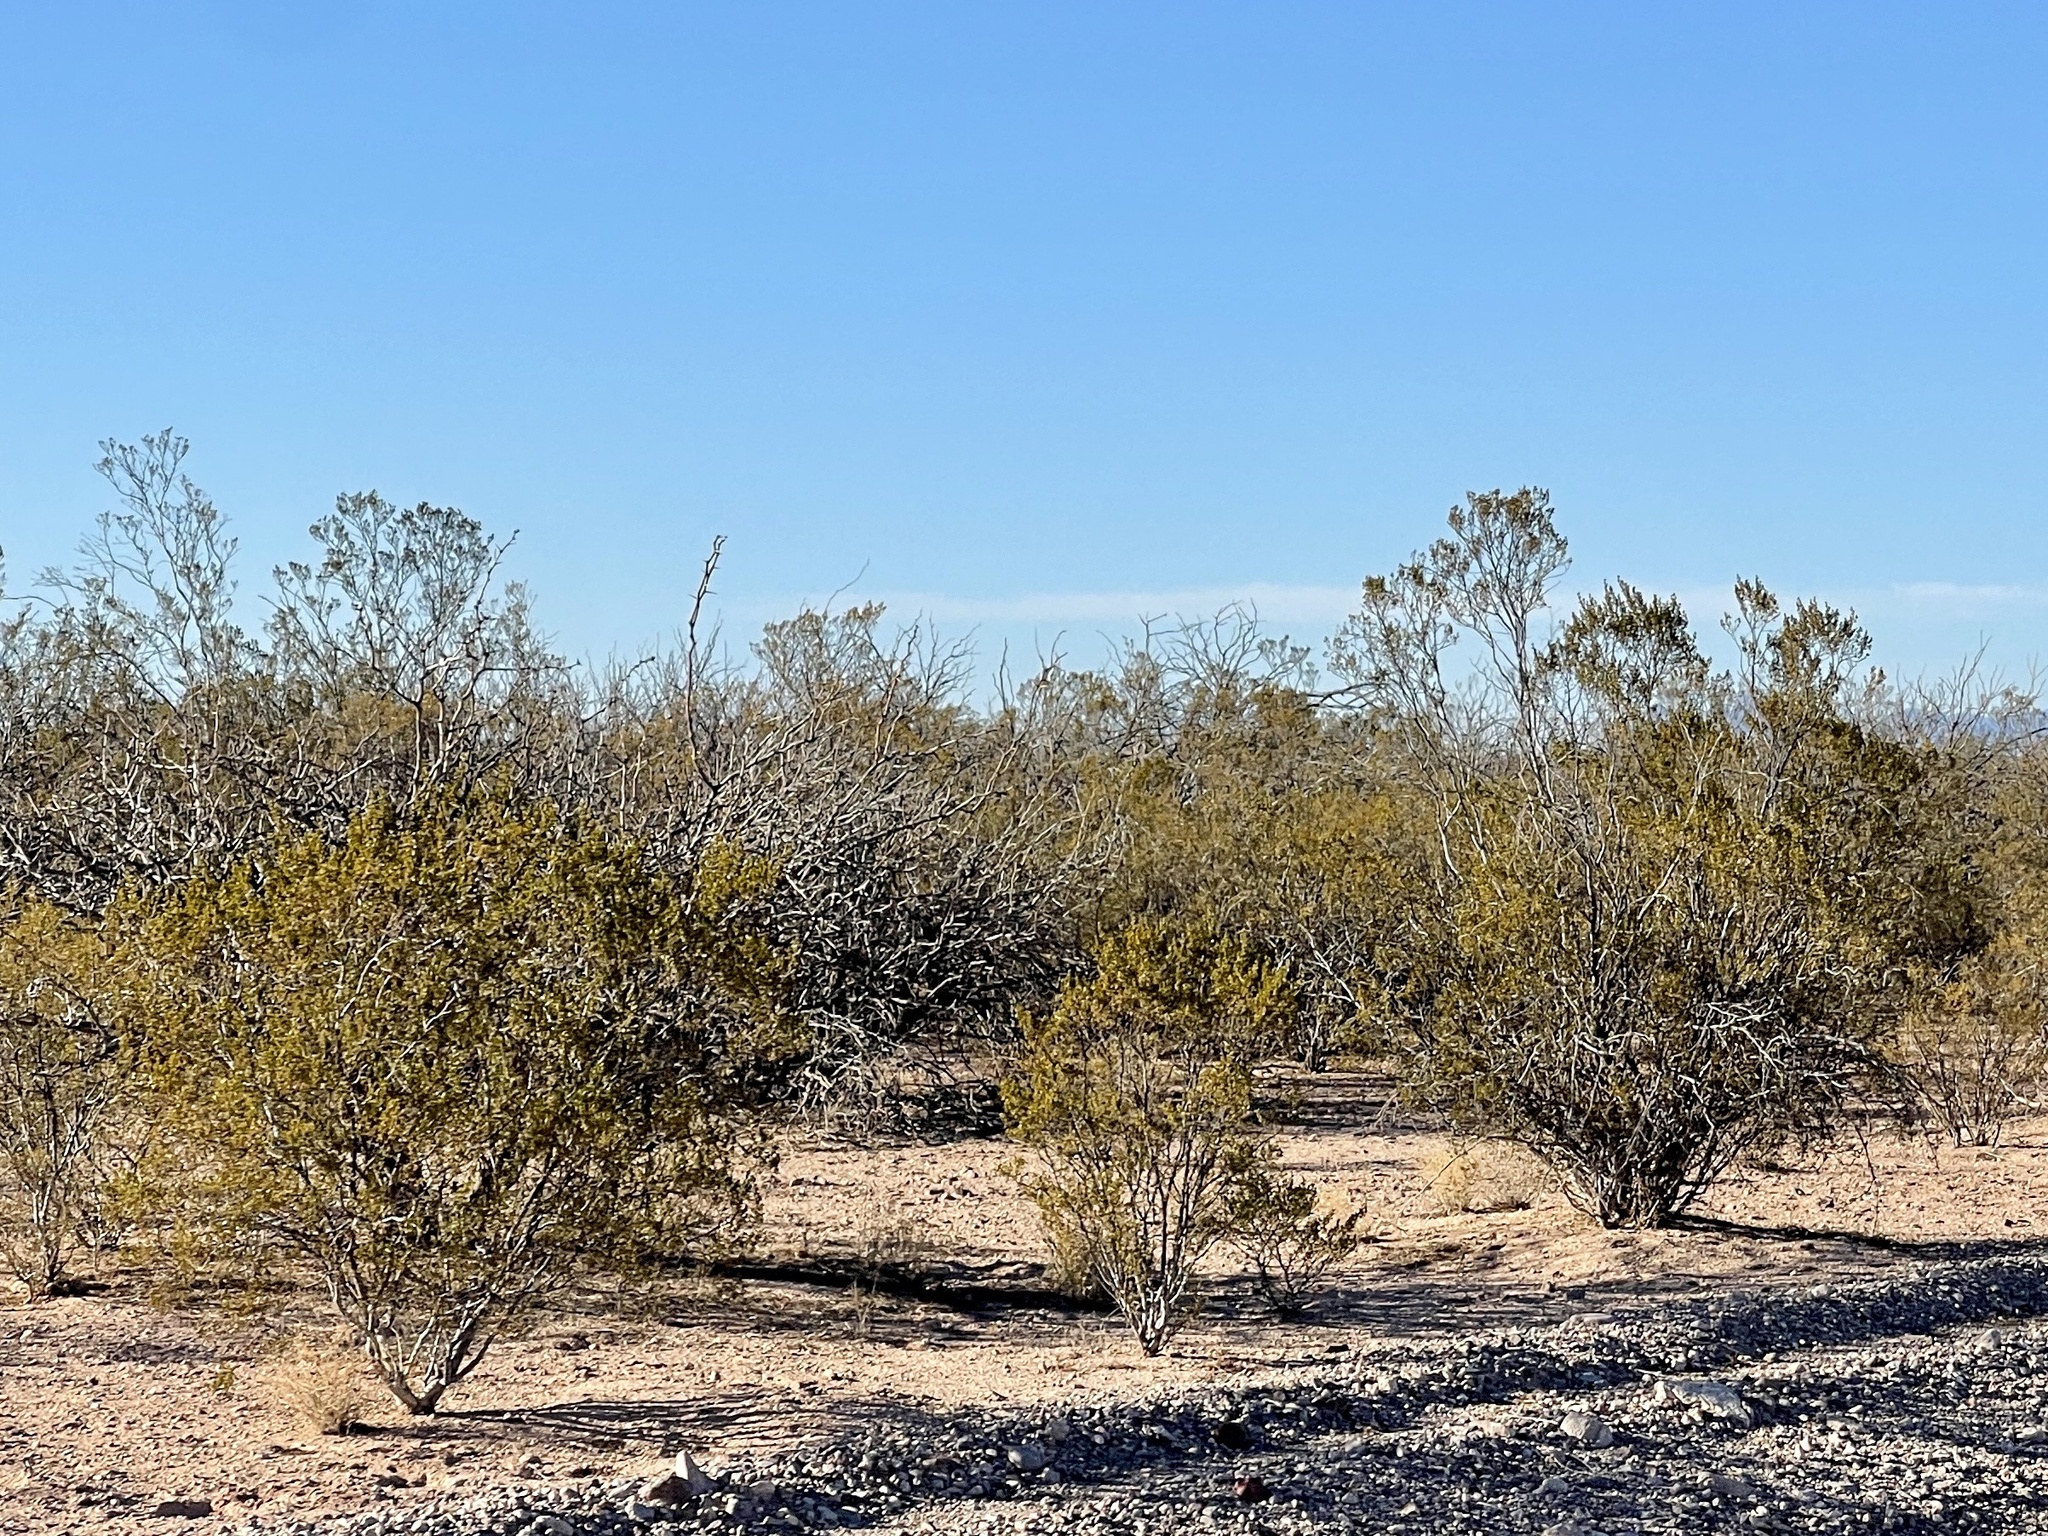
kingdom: Plantae
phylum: Tracheophyta
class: Magnoliopsida
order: Zygophyllales
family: Zygophyllaceae
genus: Larrea
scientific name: Larrea tridentata
